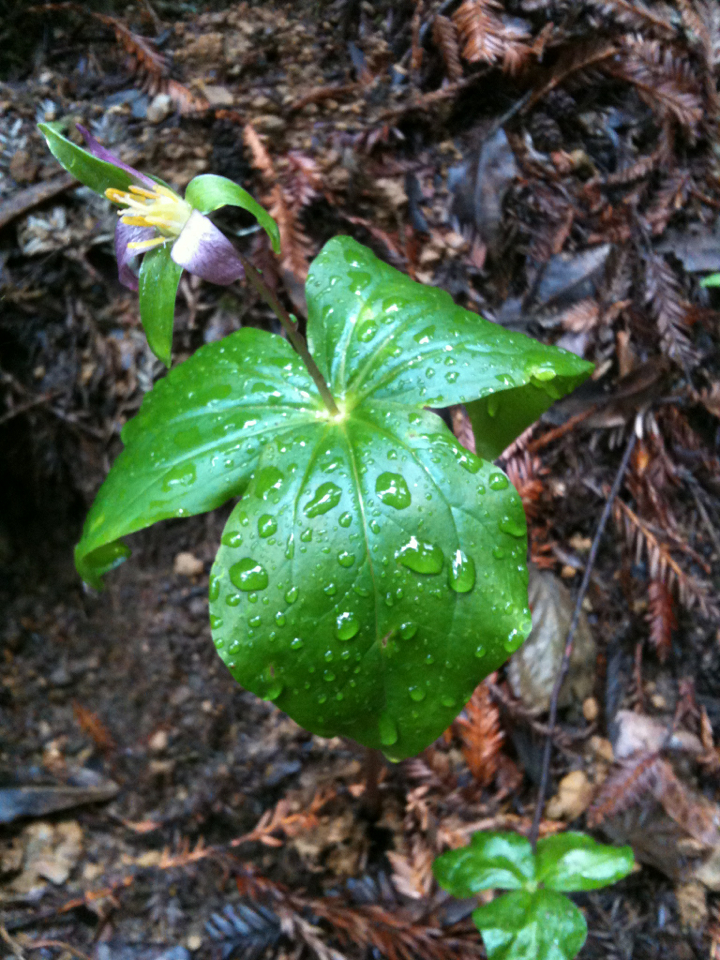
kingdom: Plantae
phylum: Tracheophyta
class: Liliopsida
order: Liliales
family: Melanthiaceae
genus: Trillium
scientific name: Trillium ovatum
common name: Pacific trillium
